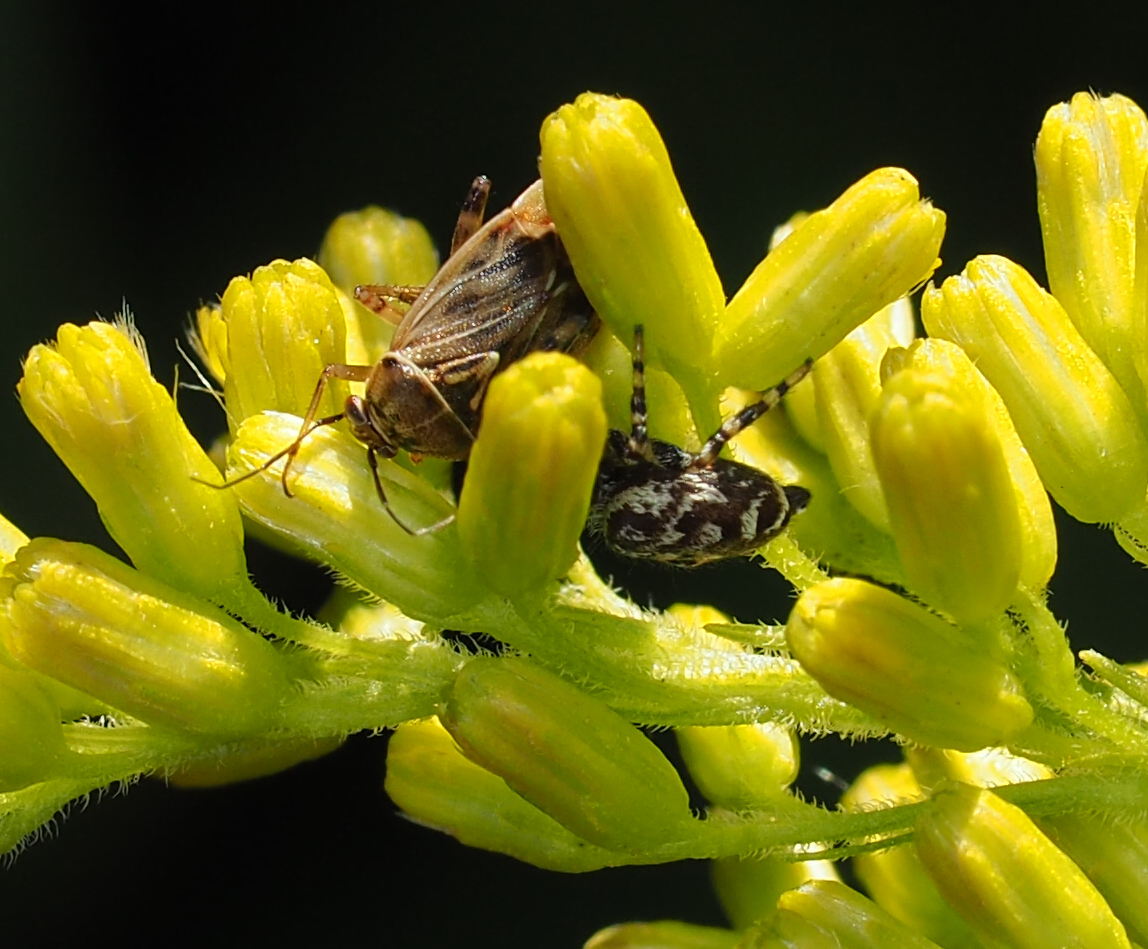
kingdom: Animalia
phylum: Arthropoda
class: Insecta
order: Hemiptera
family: Miridae
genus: Lygus
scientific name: Lygus lineolaris
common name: North american tarnished plant bug
